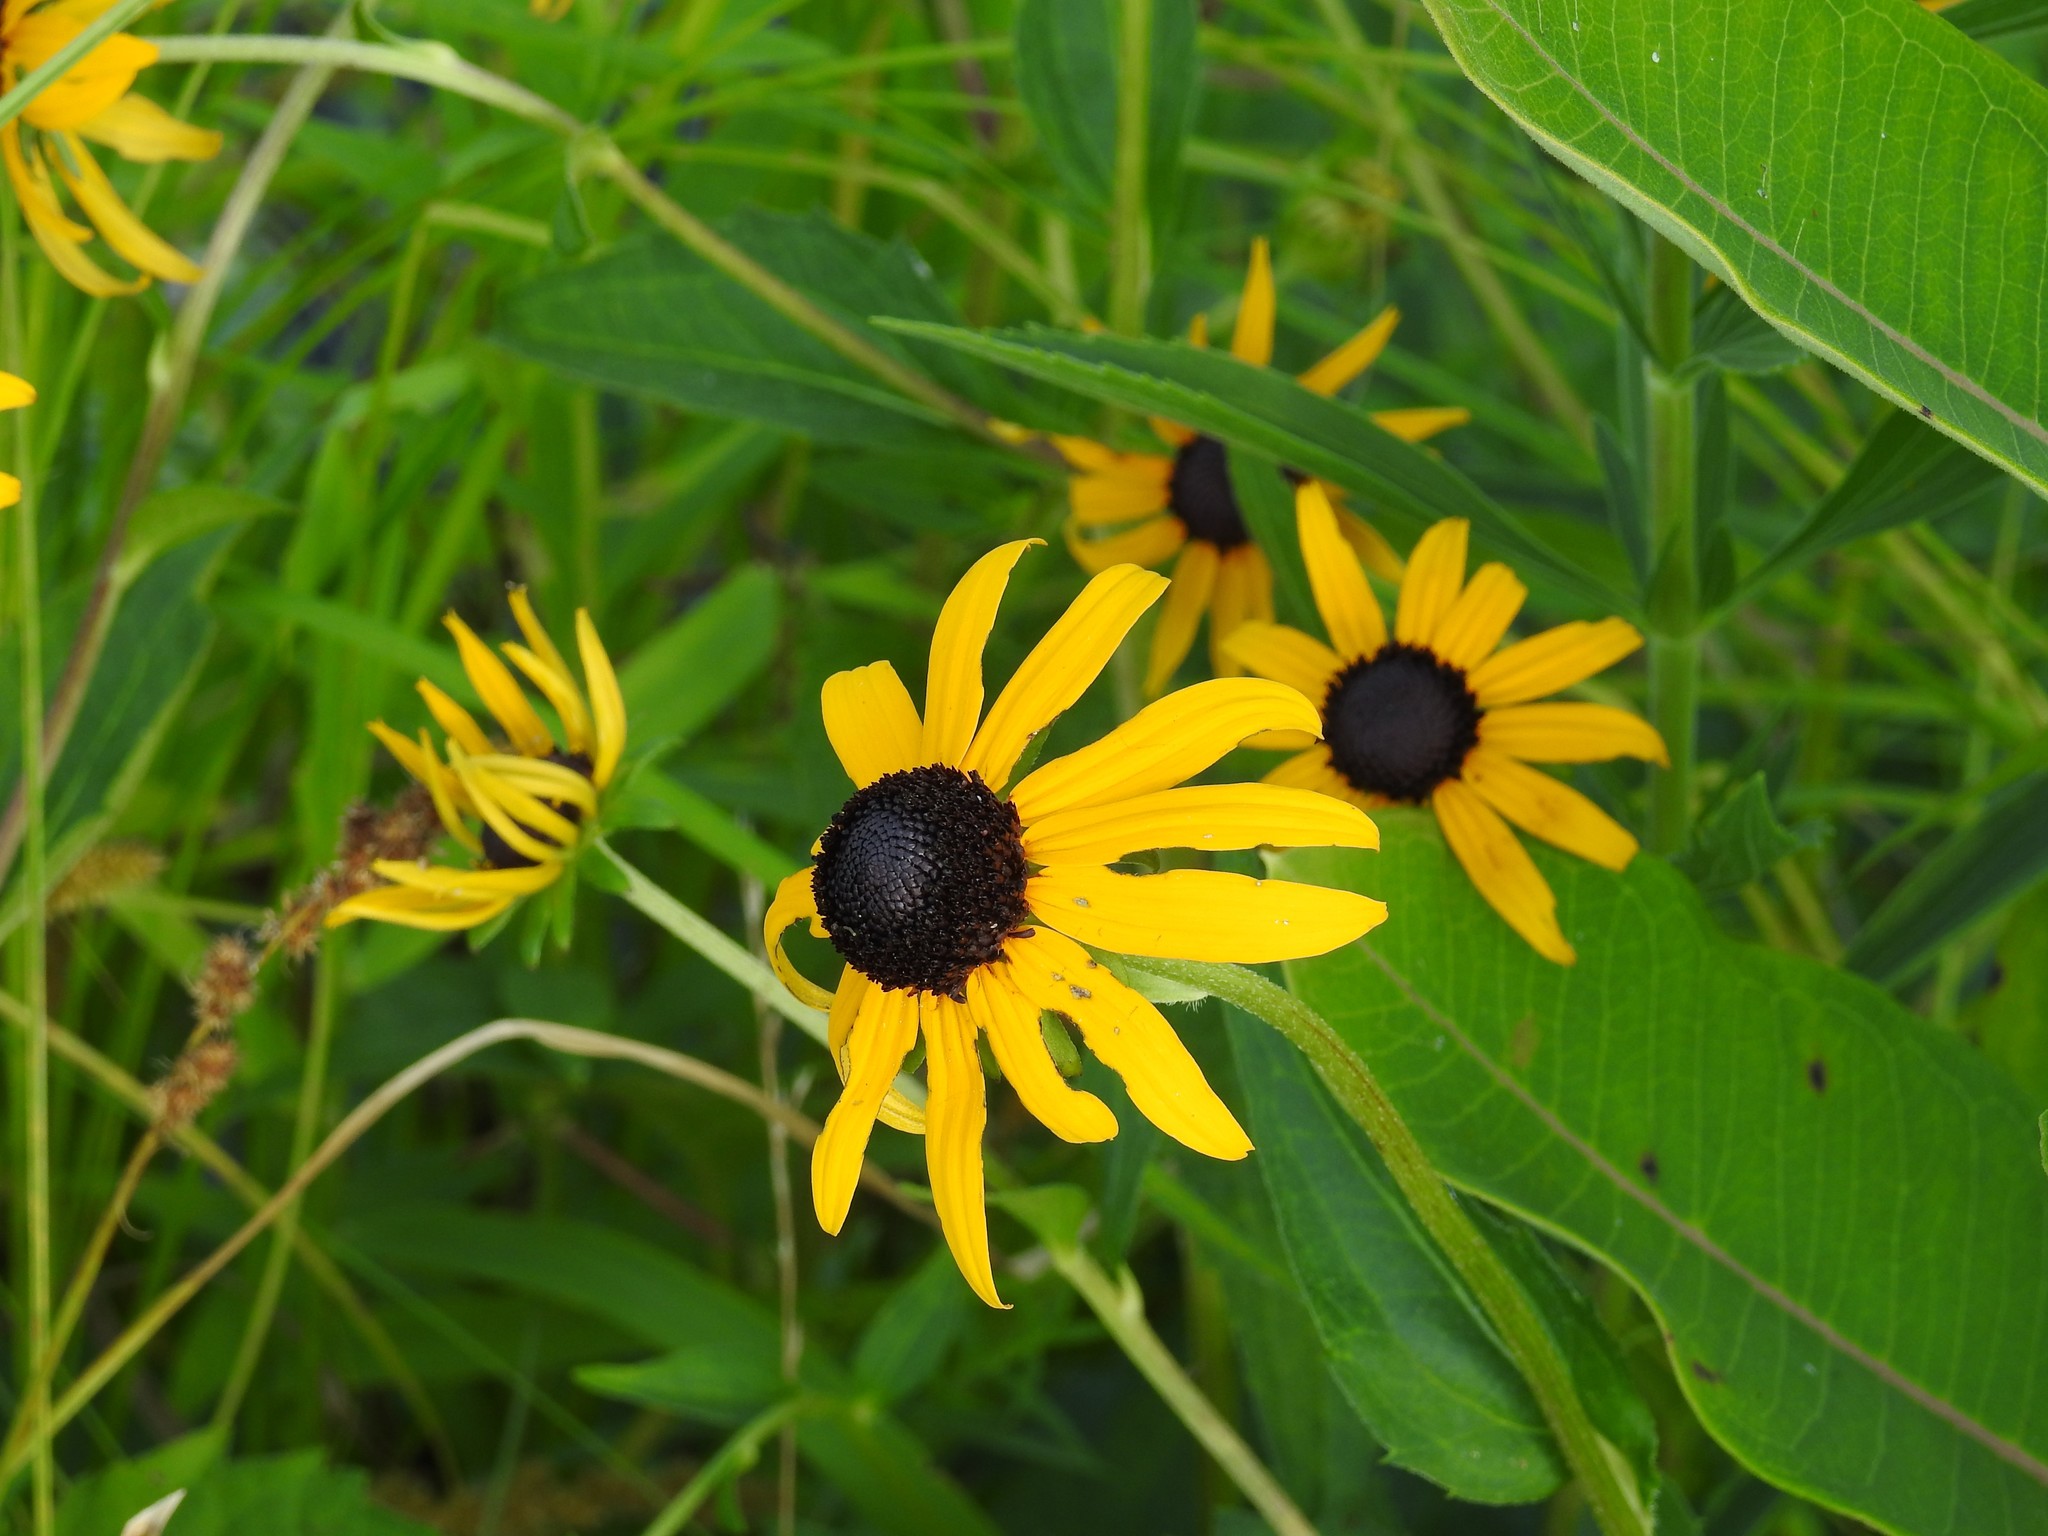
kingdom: Plantae
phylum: Tracheophyta
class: Magnoliopsida
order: Asterales
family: Asteraceae
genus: Rudbeckia
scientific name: Rudbeckia hirta
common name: Black-eyed-susan
